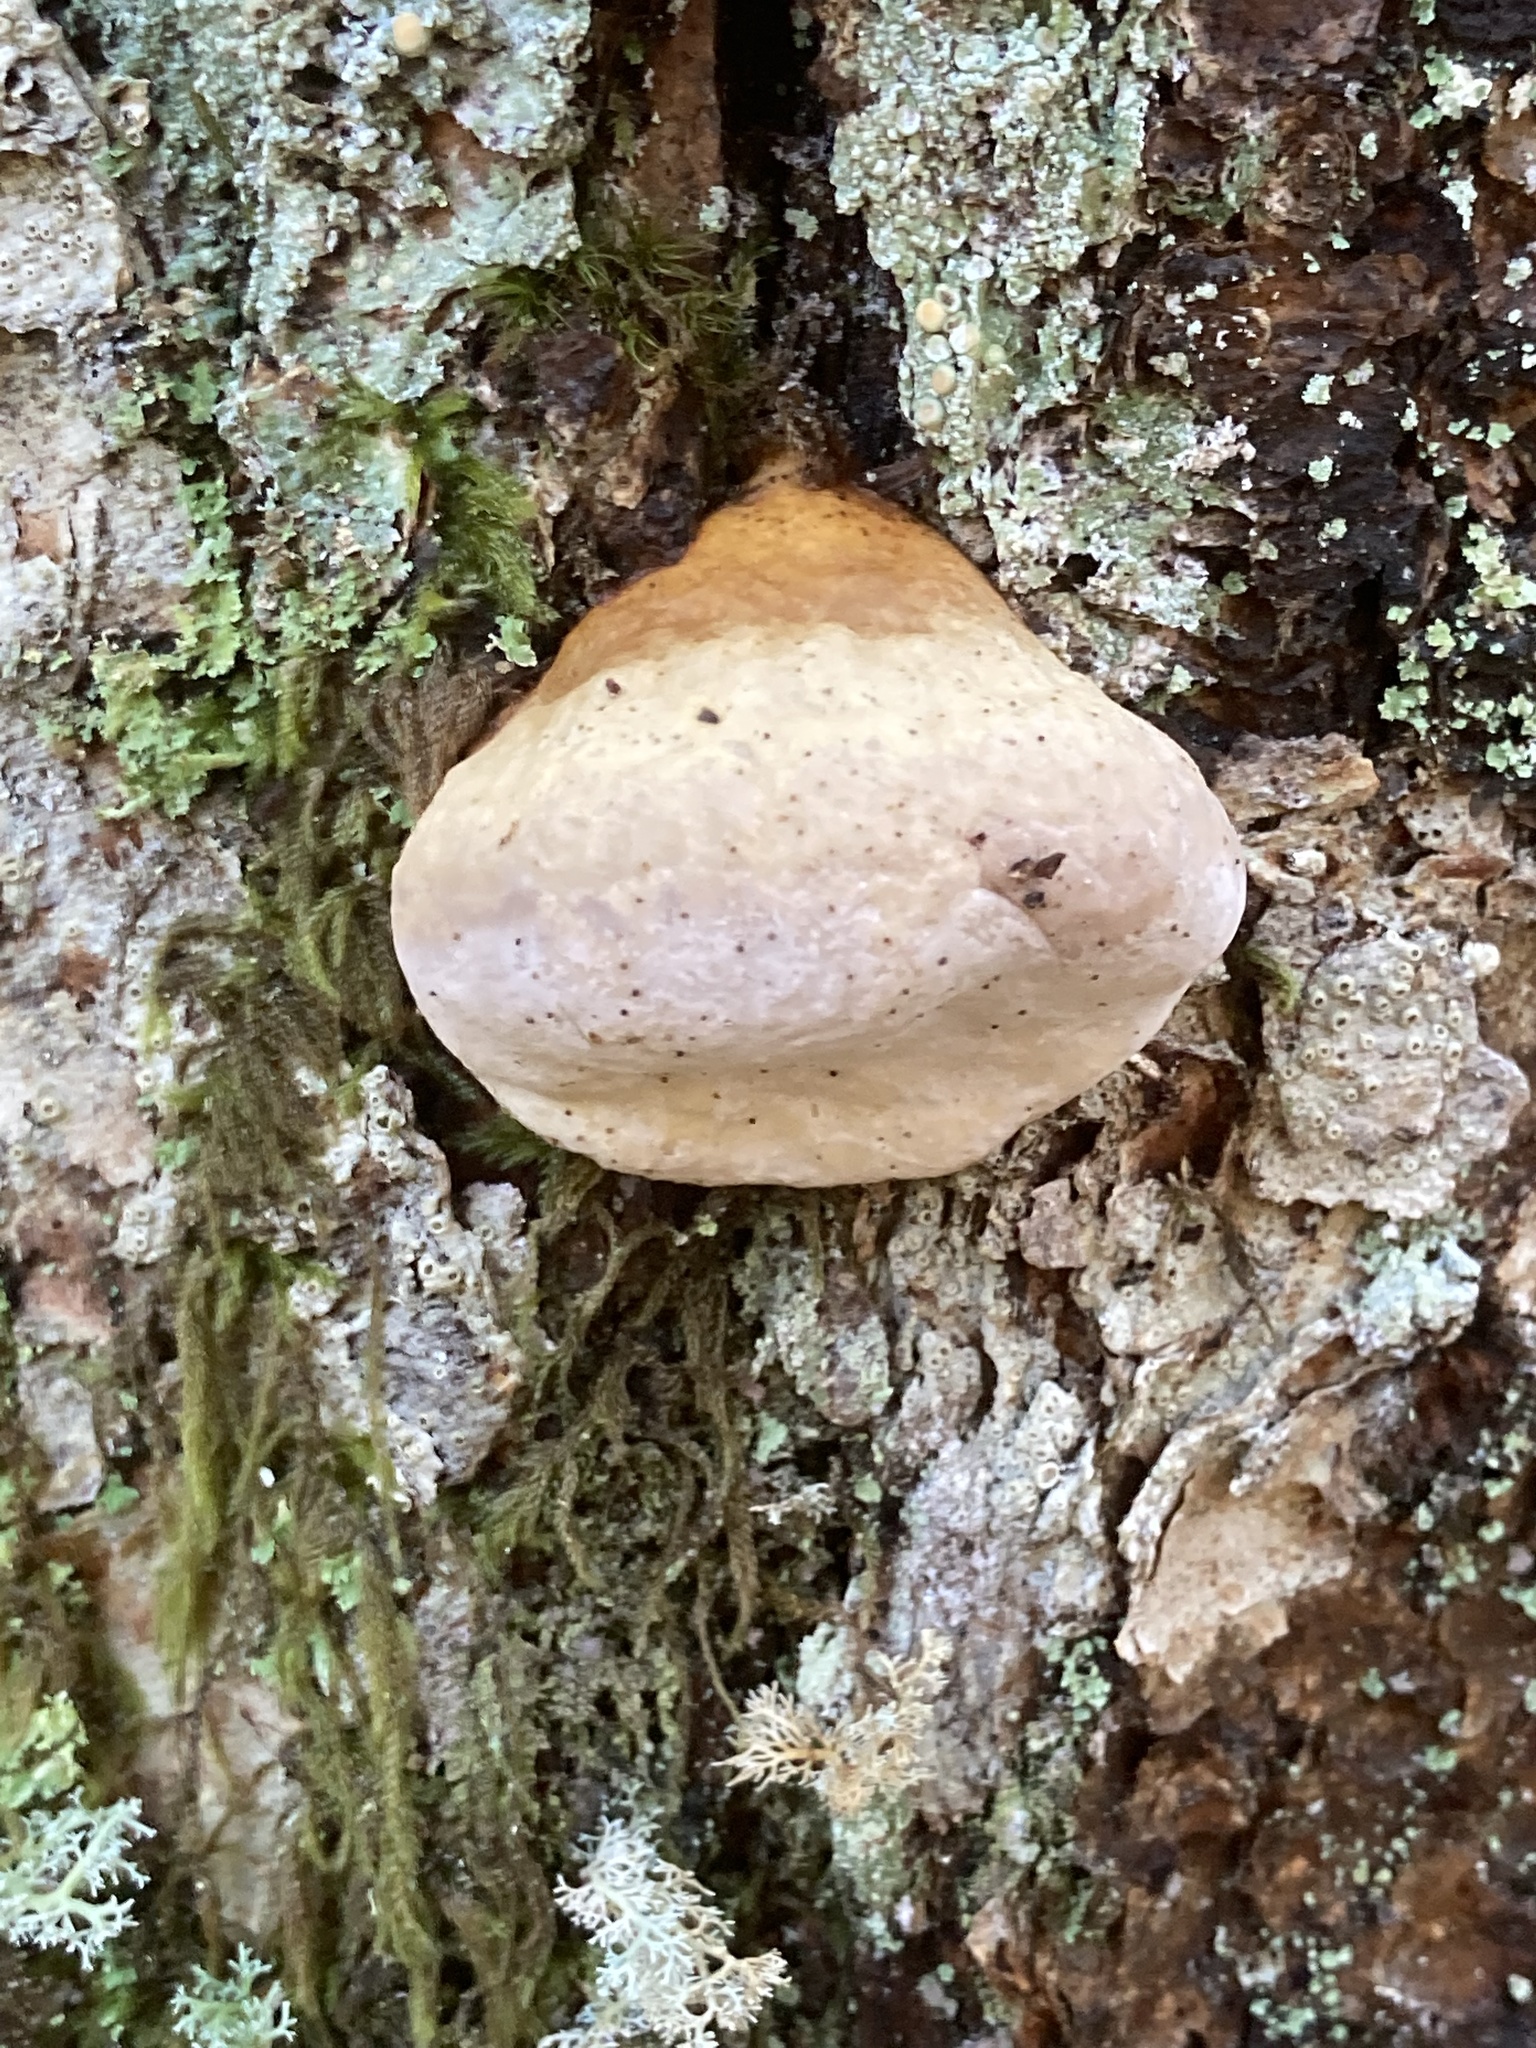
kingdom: Fungi
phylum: Basidiomycota
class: Agaricomycetes
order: Polyporales
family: Fomitopsidaceae
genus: Fomitopsis
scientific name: Fomitopsis mounceae
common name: Northern red belt
